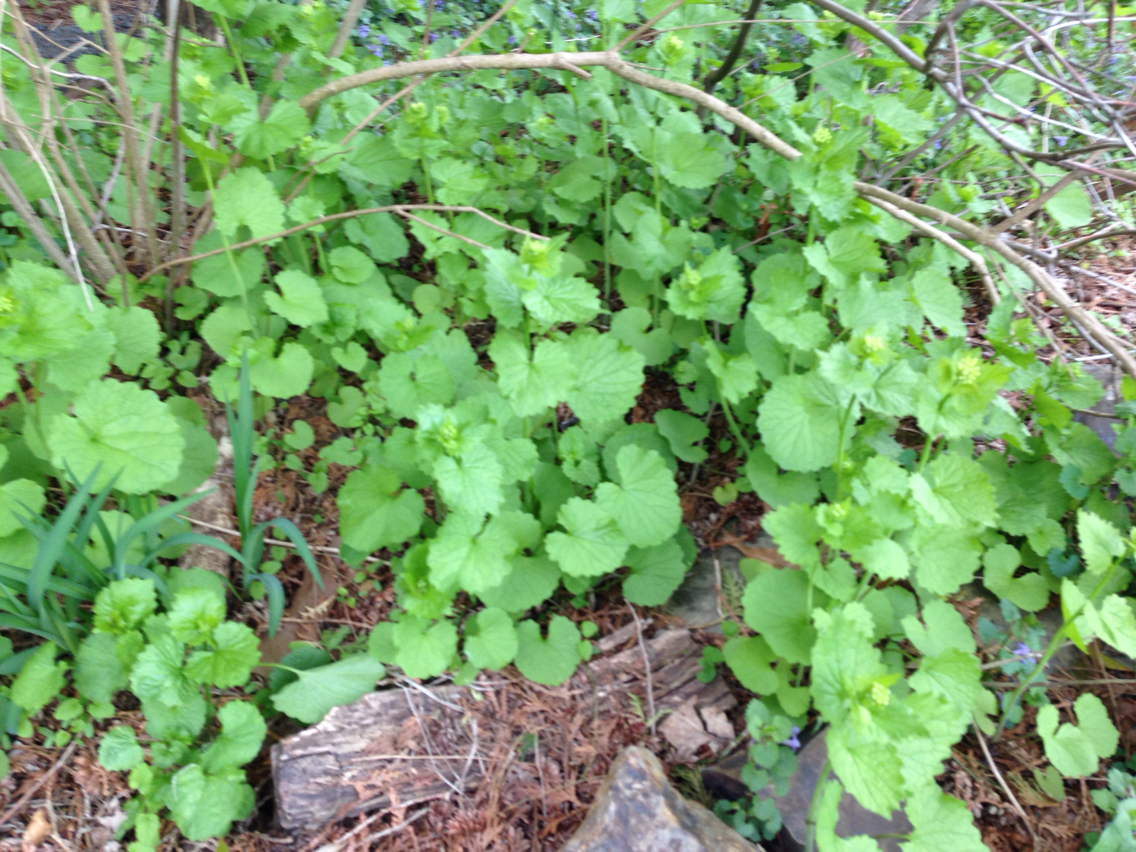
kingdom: Plantae
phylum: Tracheophyta
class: Magnoliopsida
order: Brassicales
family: Brassicaceae
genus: Alliaria
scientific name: Alliaria petiolata
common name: Garlic mustard
